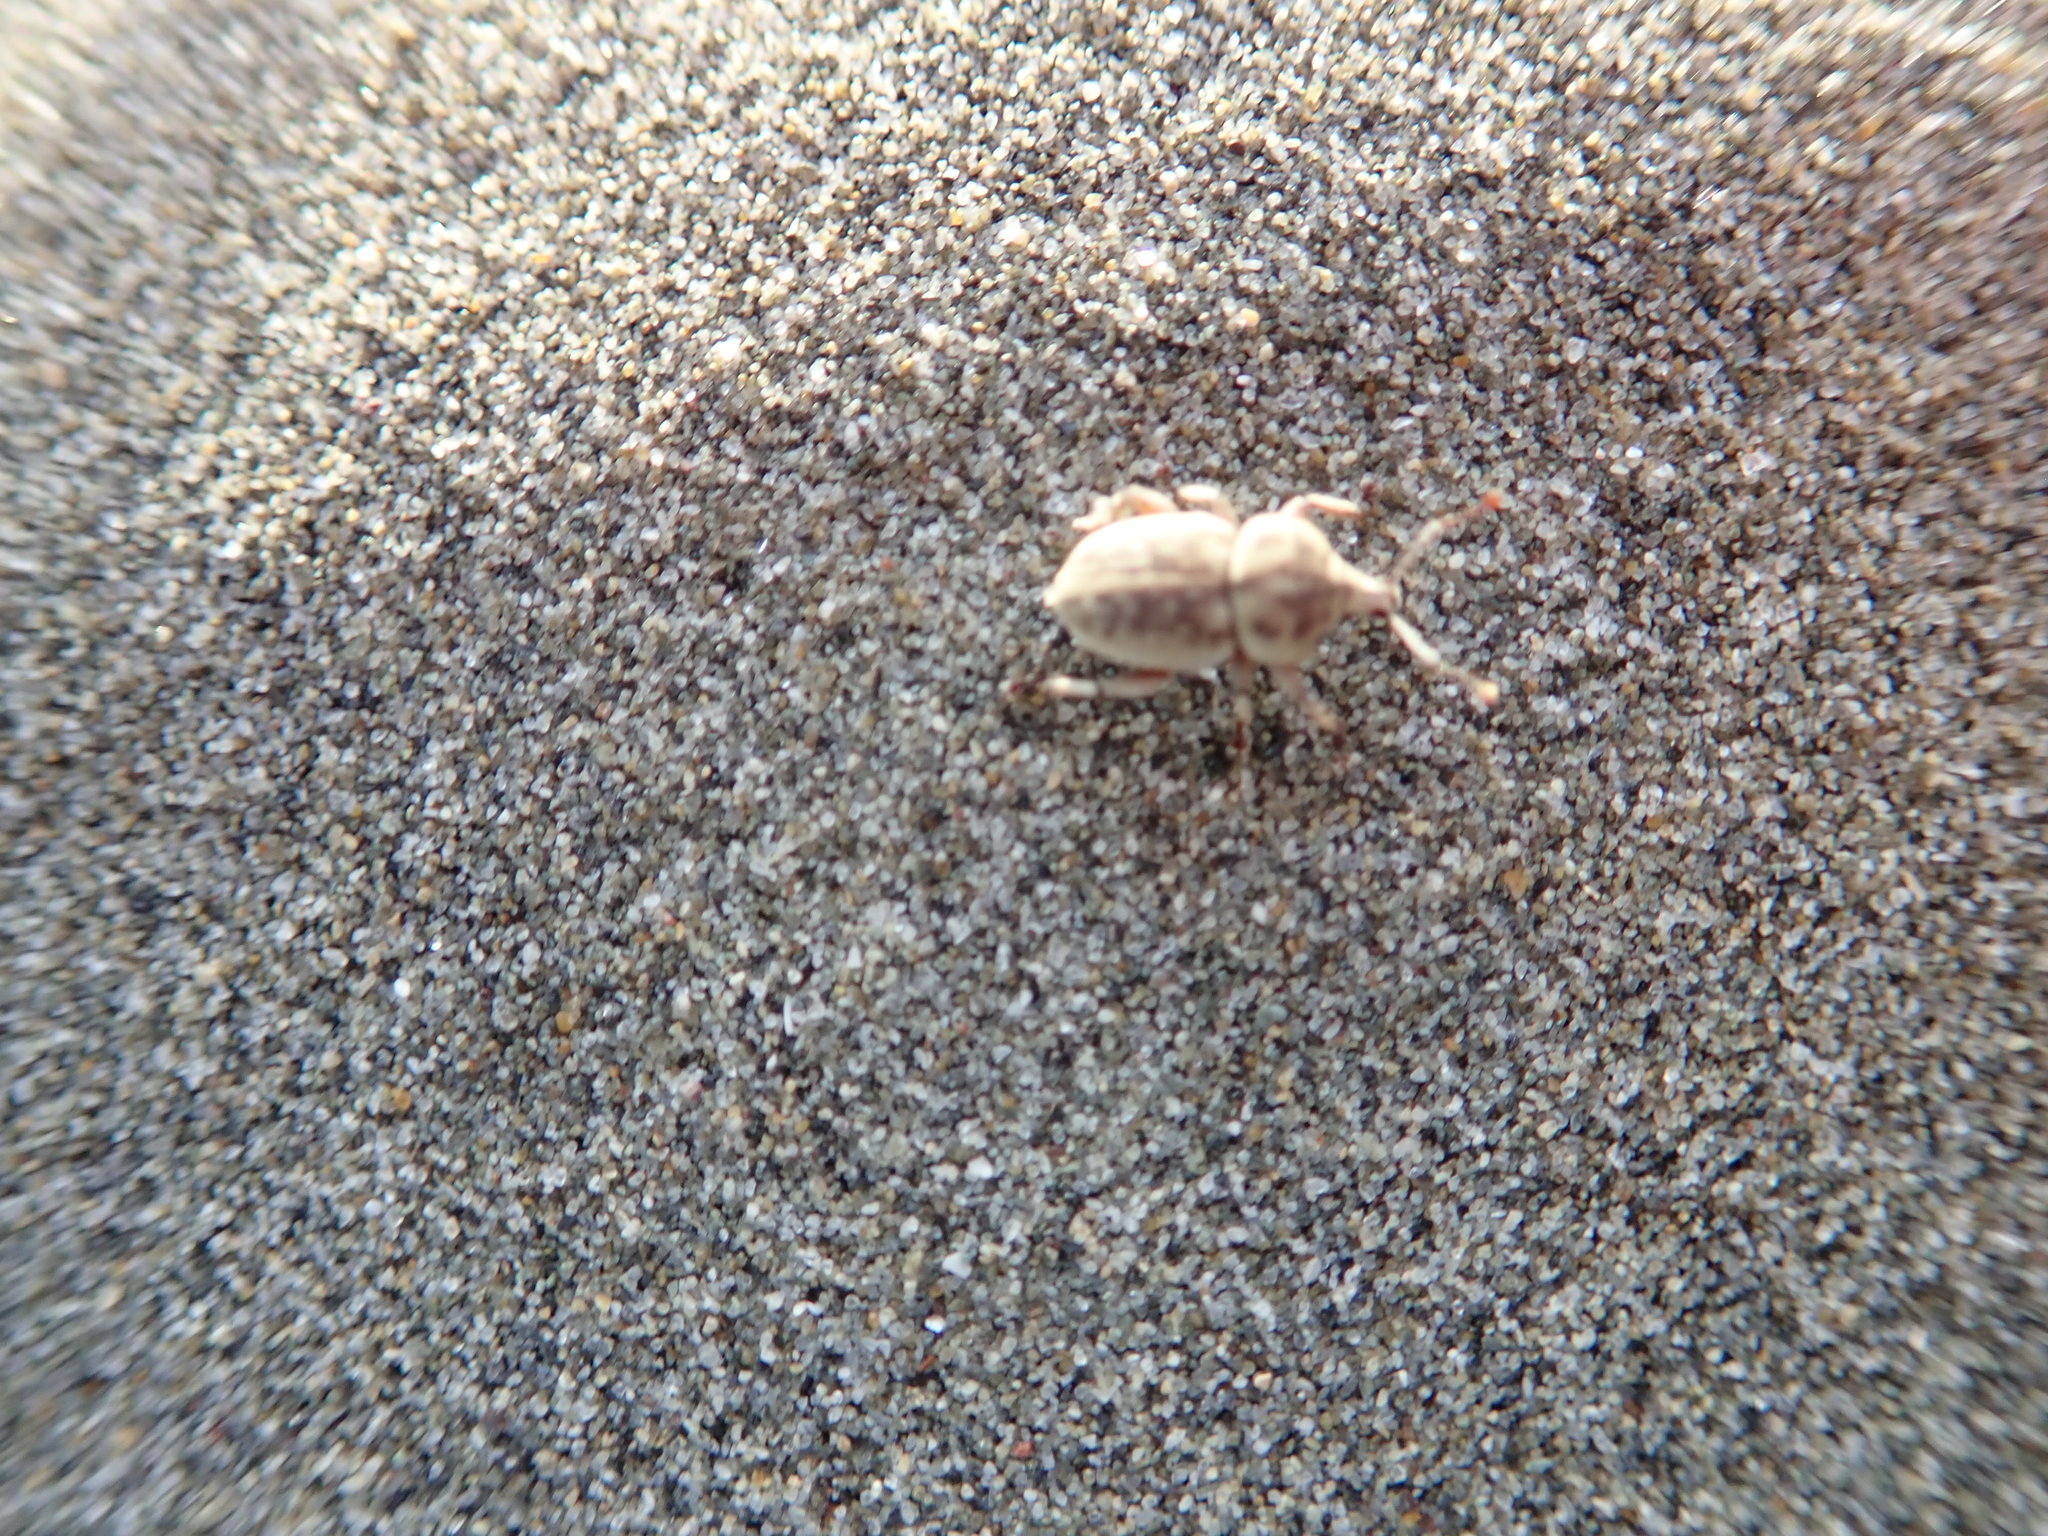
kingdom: Animalia
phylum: Arthropoda
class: Insecta
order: Coleoptera
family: Curculionidae
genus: Cecyropa
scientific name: Cecyropa modesta
